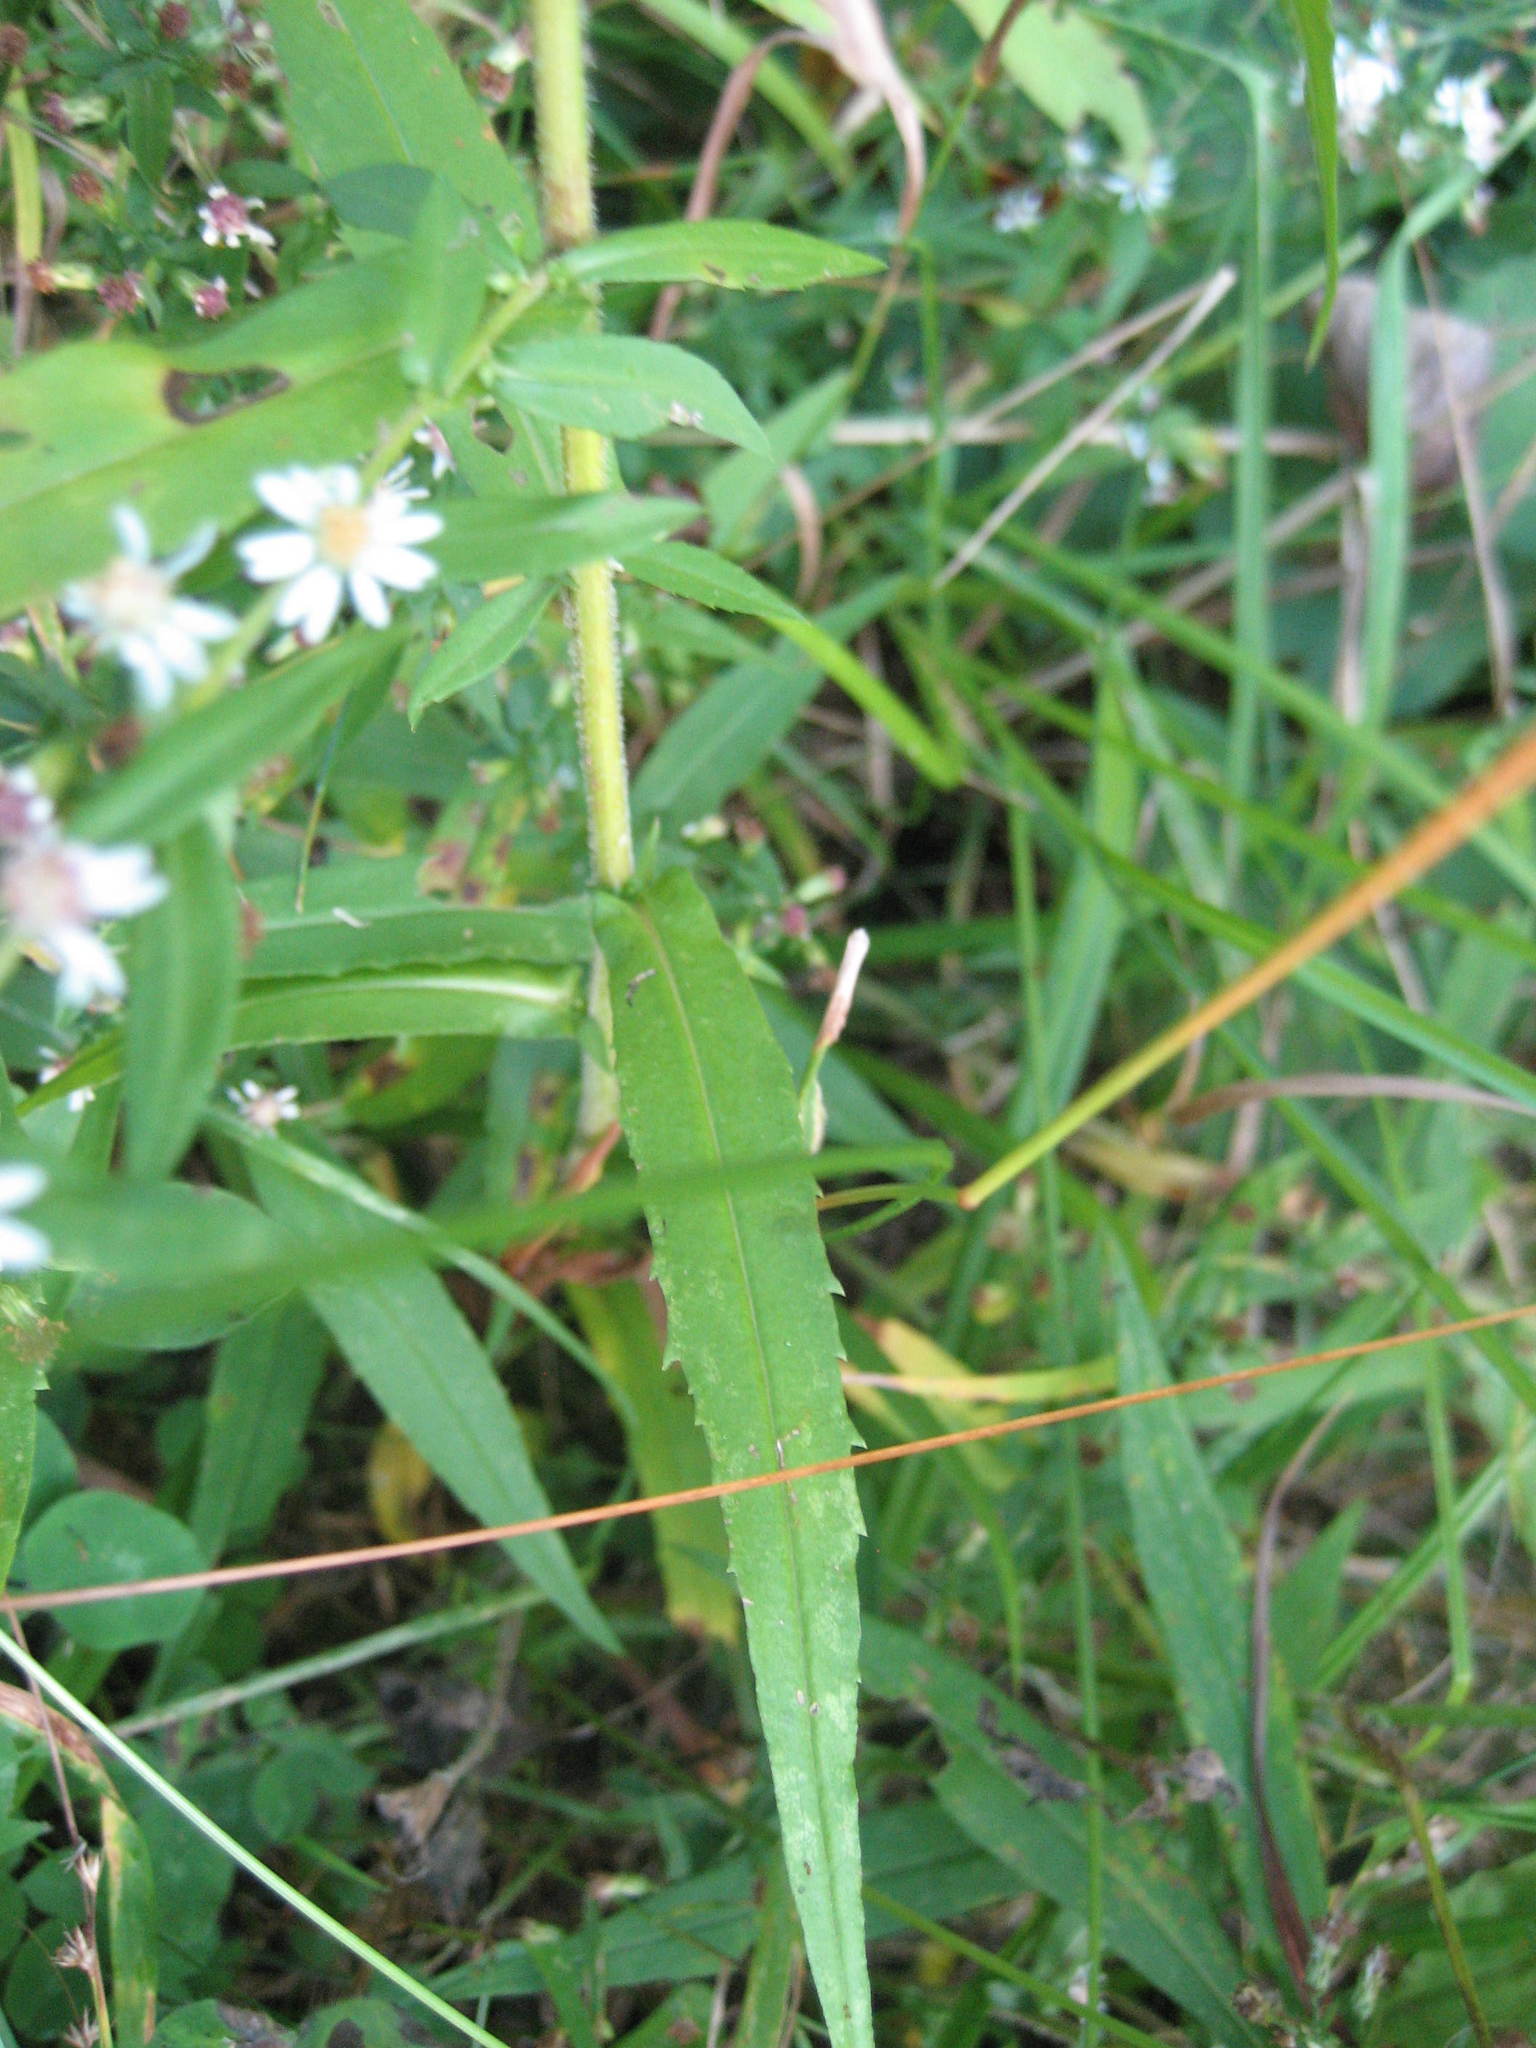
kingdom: Plantae
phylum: Tracheophyta
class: Magnoliopsida
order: Asterales
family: Asteraceae
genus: Symphyotrichum
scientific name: Symphyotrichum lateriflorum
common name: Calico aster
